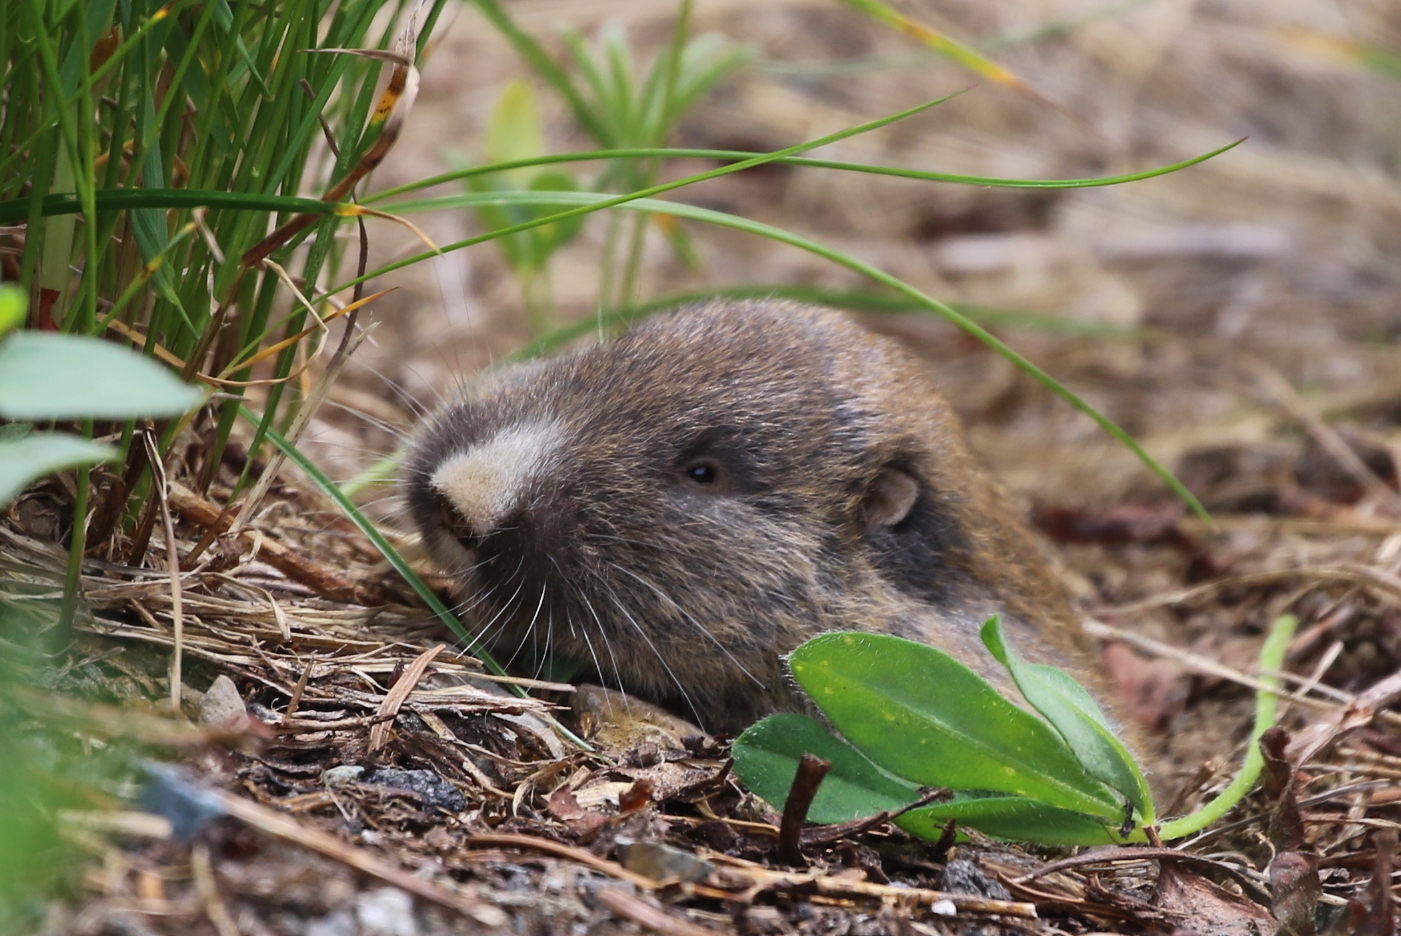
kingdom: Animalia
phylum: Chordata
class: Mammalia
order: Rodentia
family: Geomyidae
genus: Thomomys
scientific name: Thomomys talpoides
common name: Northern pocket gopher
